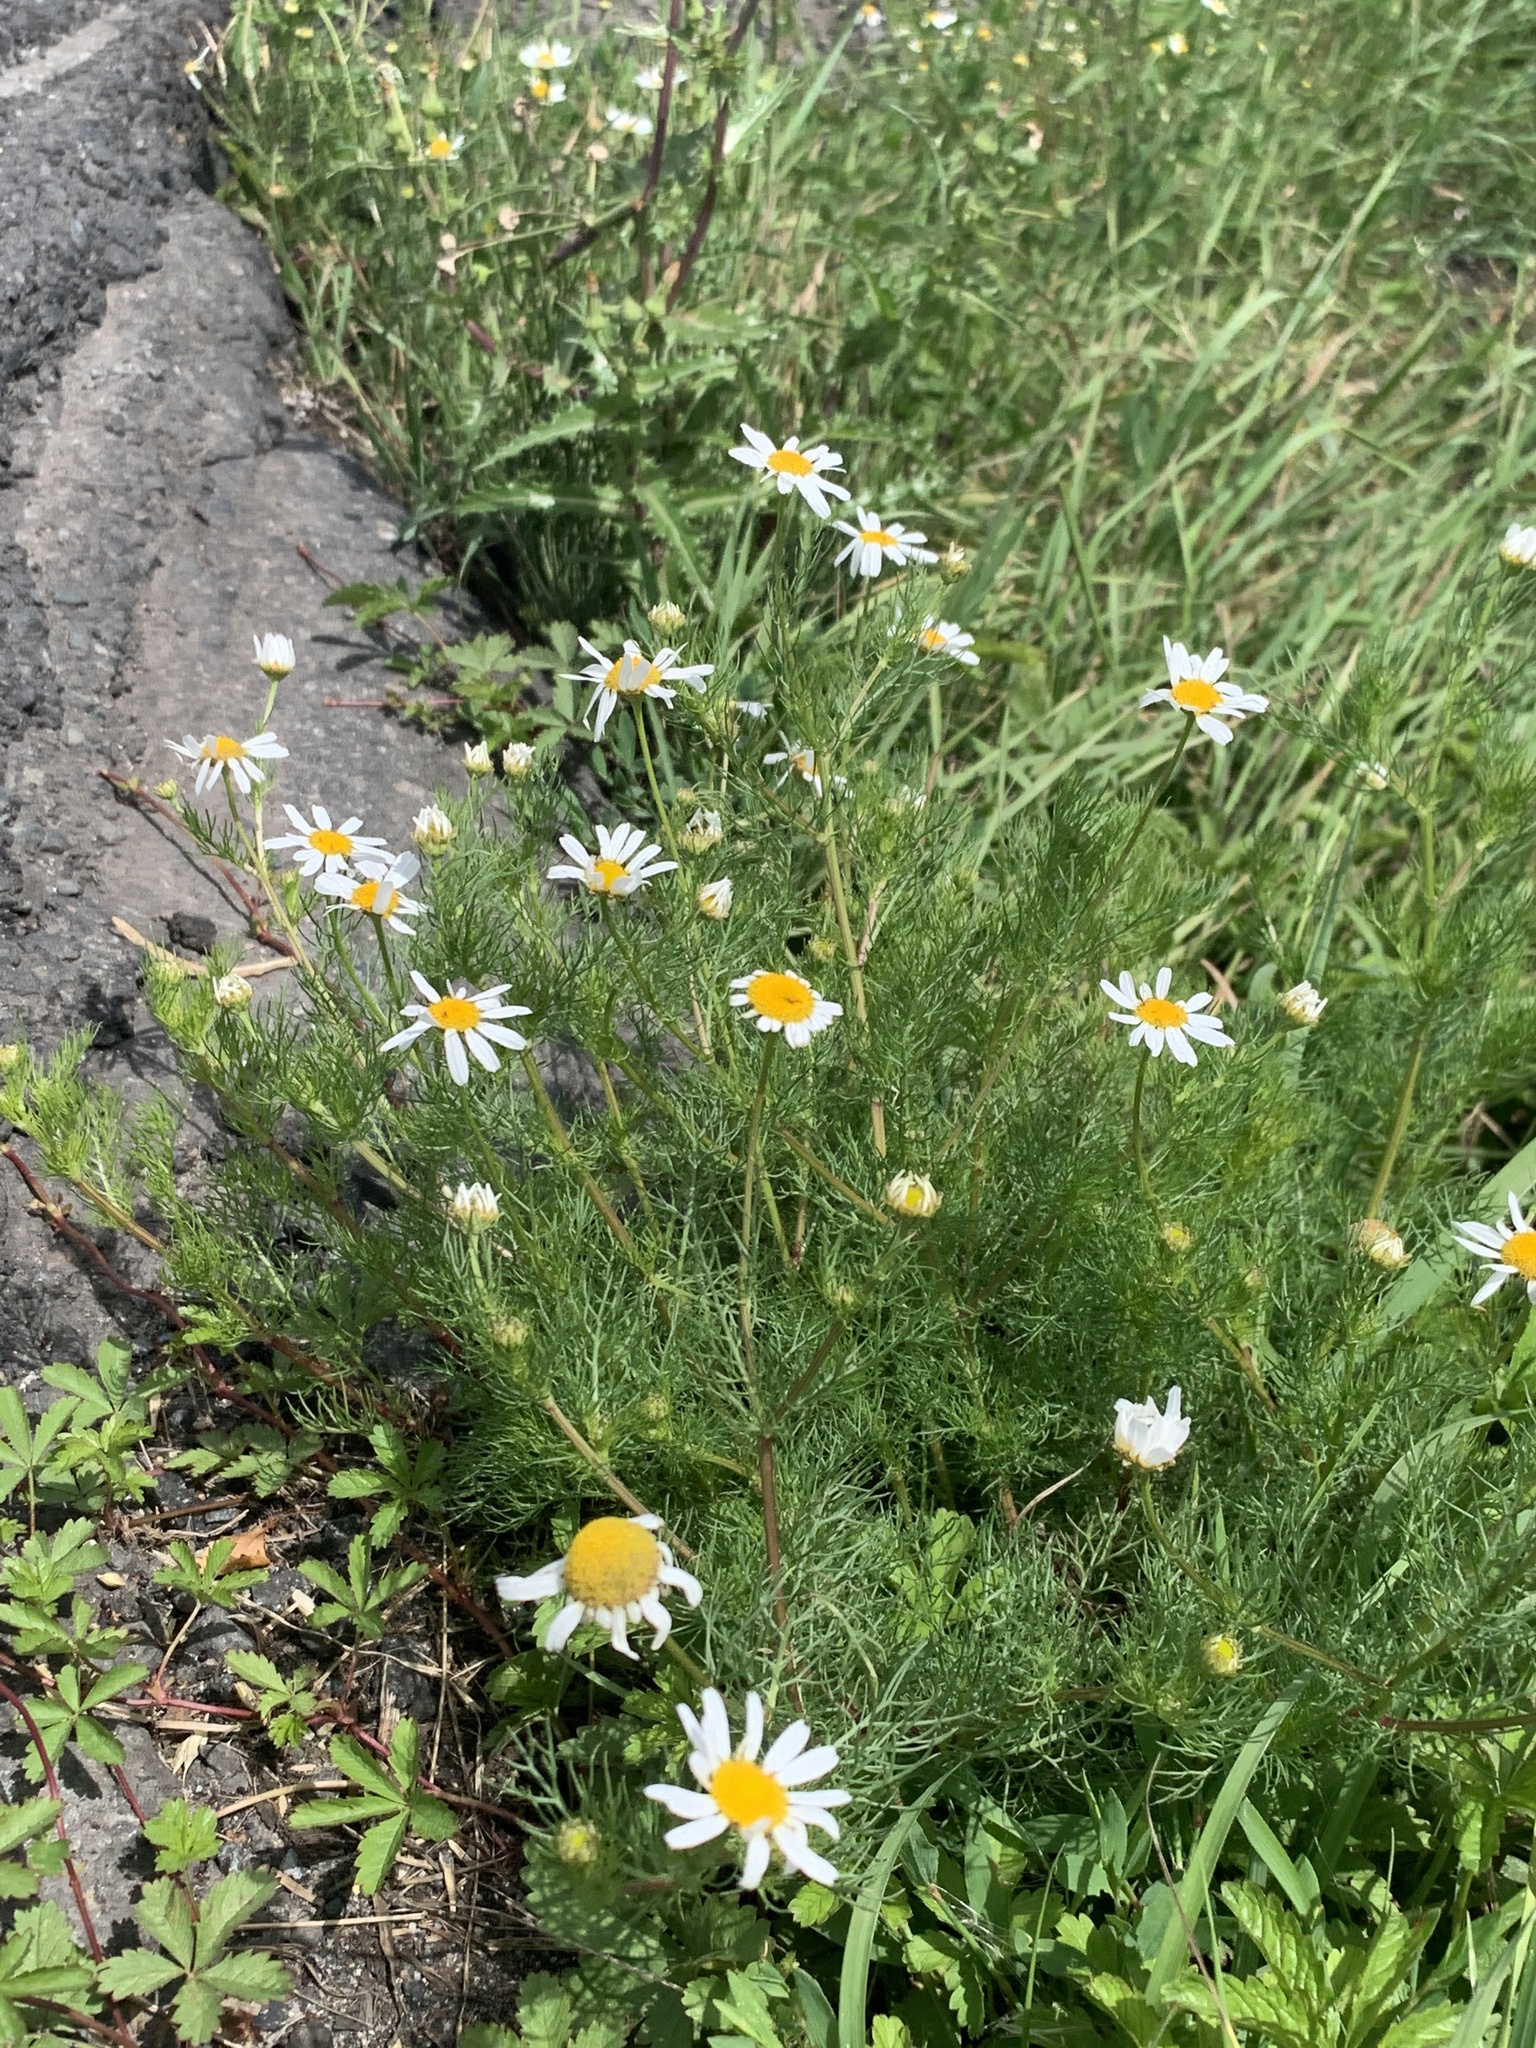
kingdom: Plantae
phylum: Tracheophyta
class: Magnoliopsida
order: Asterales
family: Asteraceae
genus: Tripleurospermum
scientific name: Tripleurospermum inodorum
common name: Scentless mayweed
